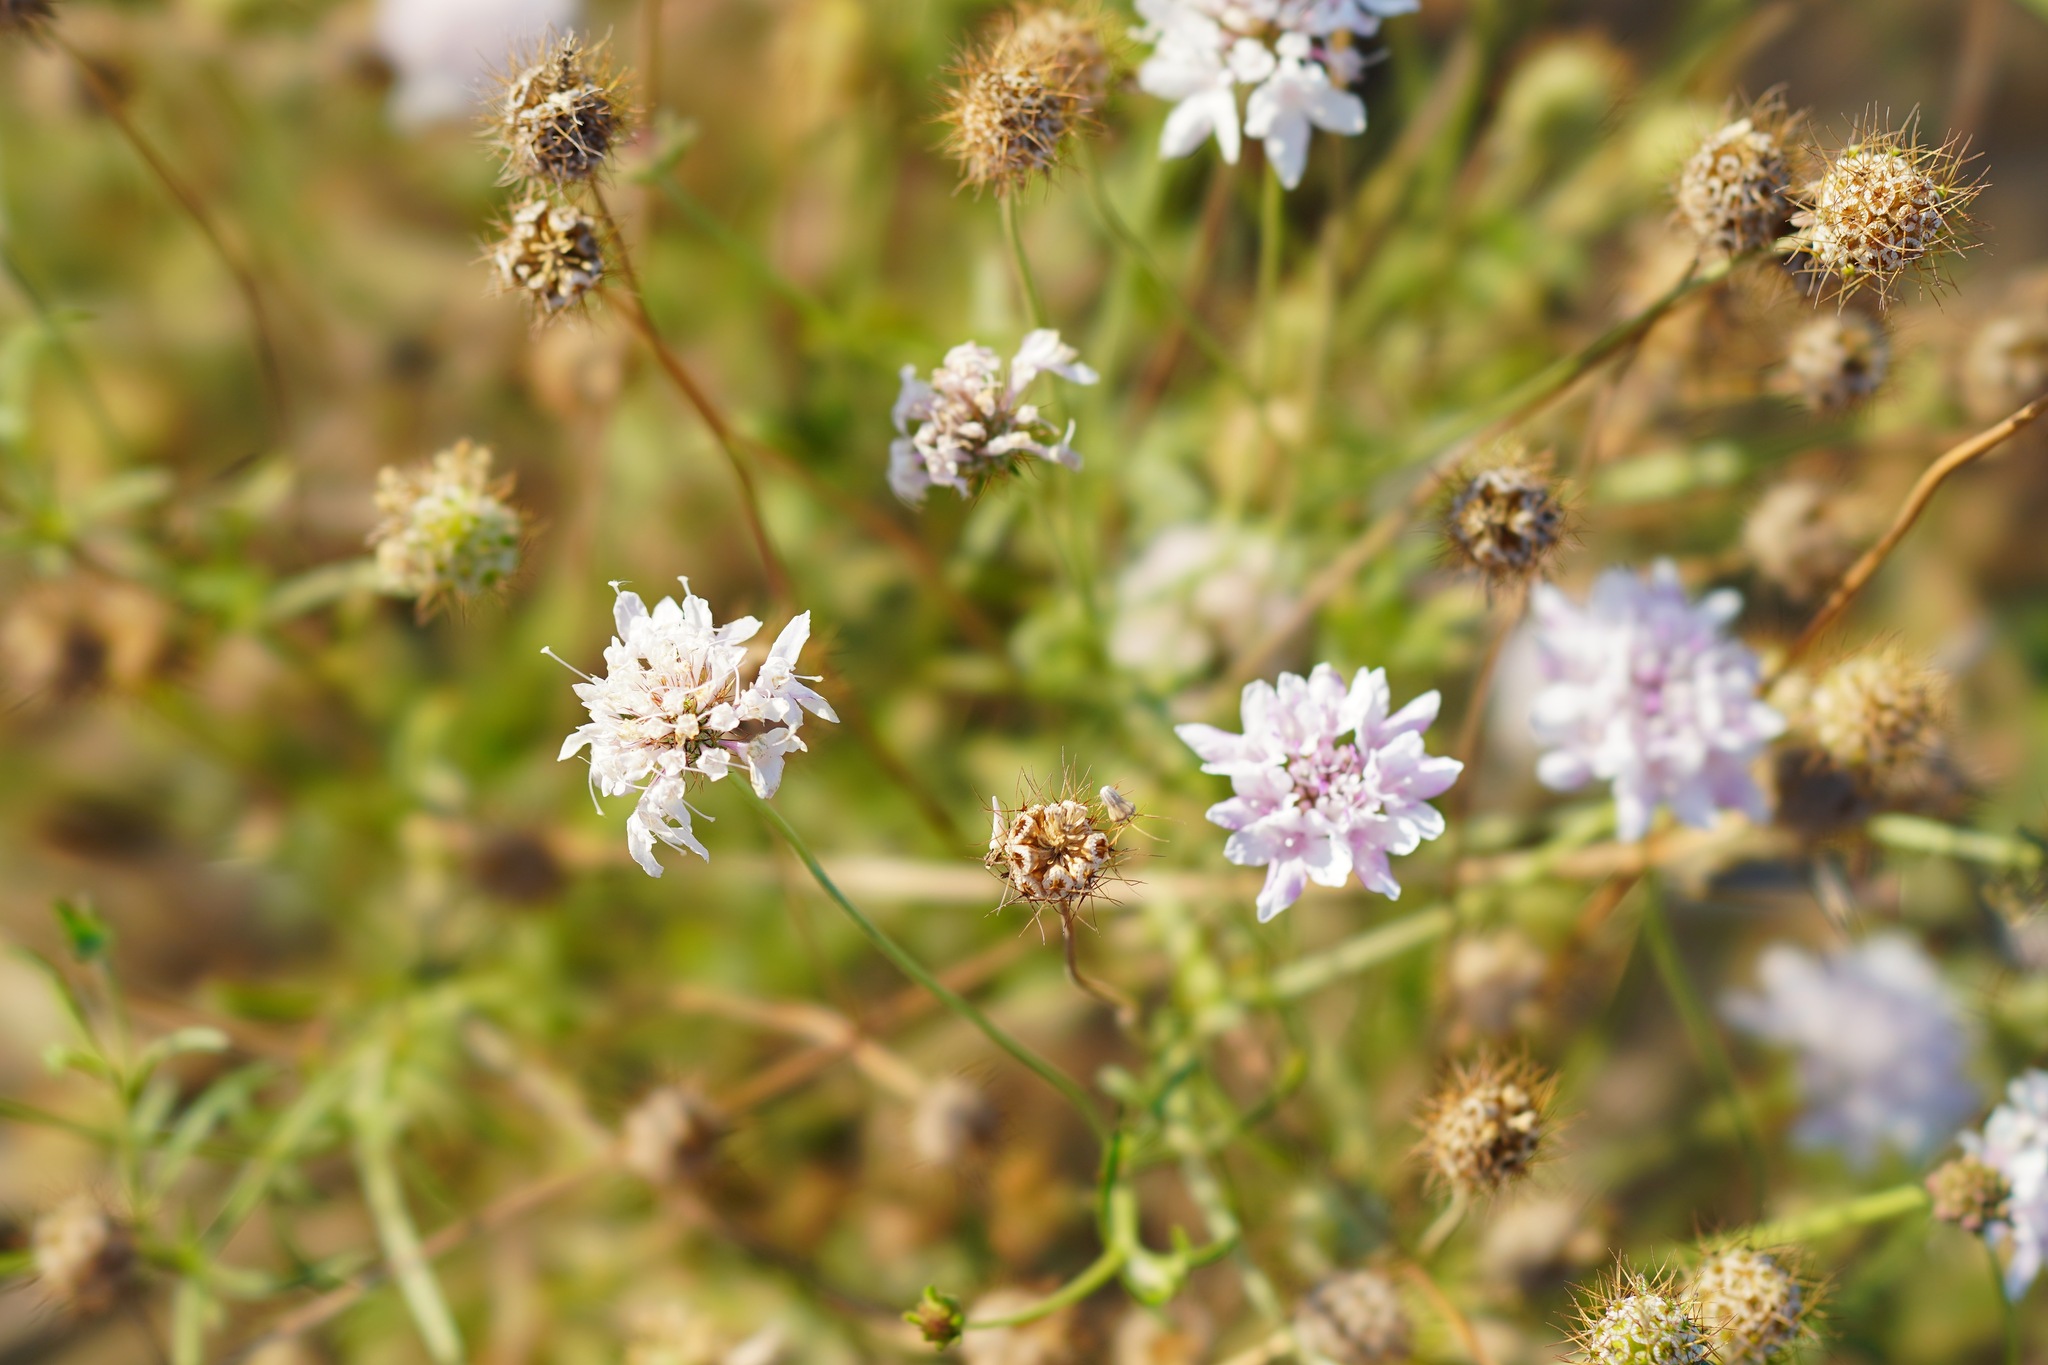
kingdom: Plantae
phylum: Tracheophyta
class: Magnoliopsida
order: Dipsacales
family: Caprifoliaceae
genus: Sixalix
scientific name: Sixalix atropurpurea
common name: Sweet scabious
